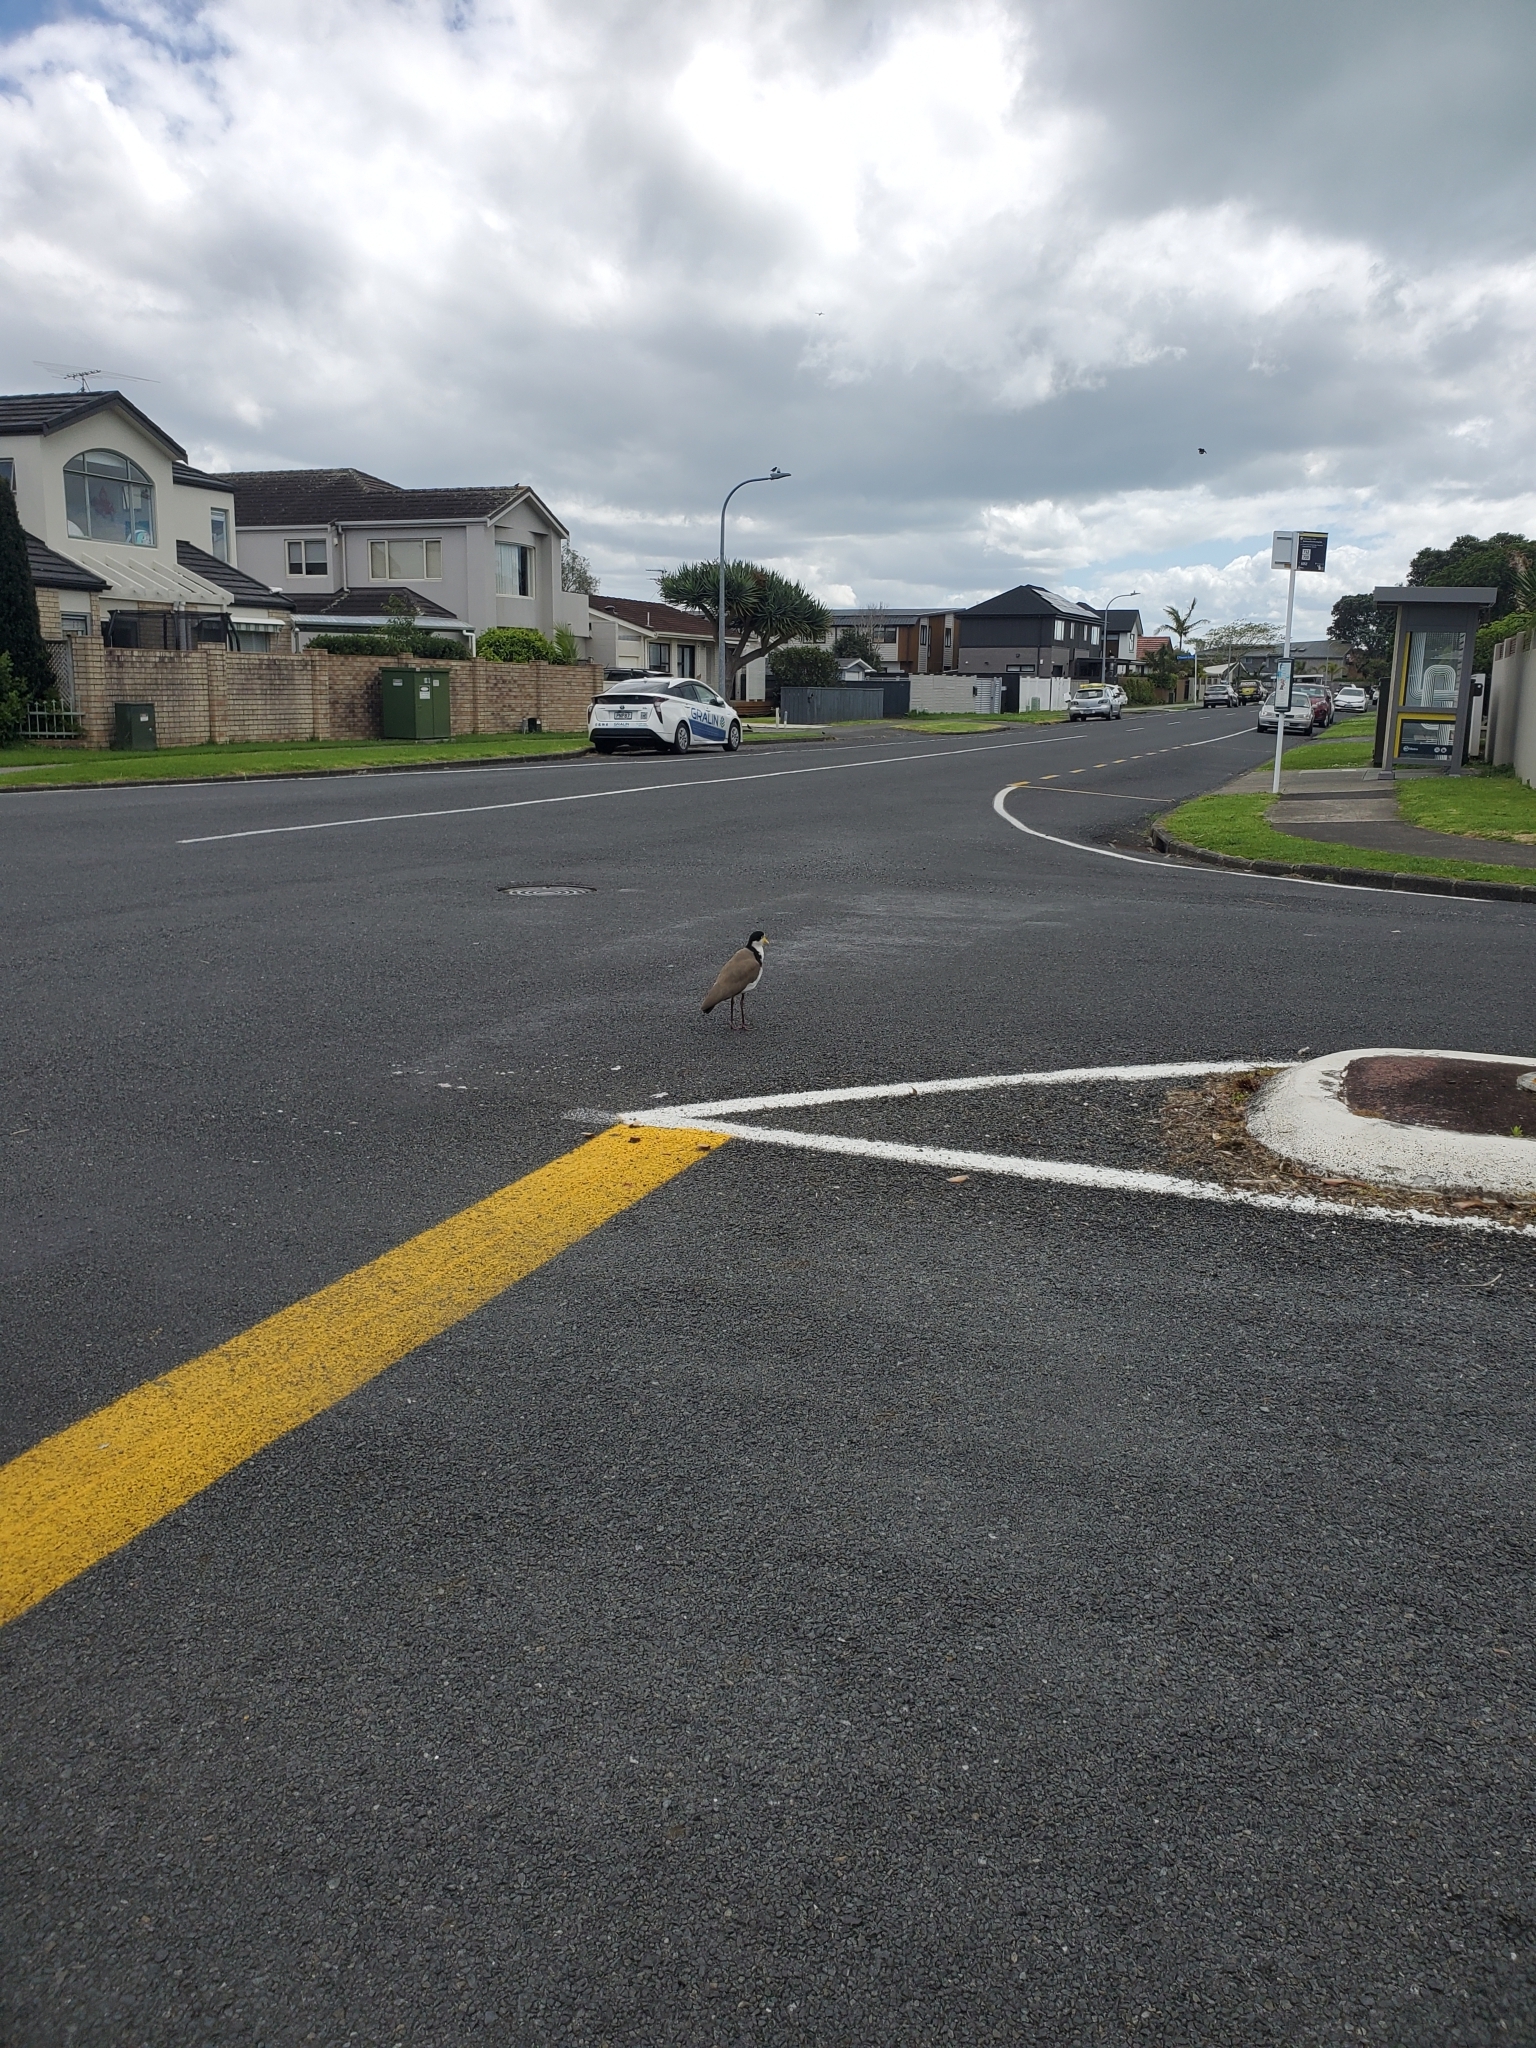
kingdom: Animalia
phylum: Chordata
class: Aves
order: Charadriiformes
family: Charadriidae
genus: Vanellus
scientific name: Vanellus miles
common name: Masked lapwing
